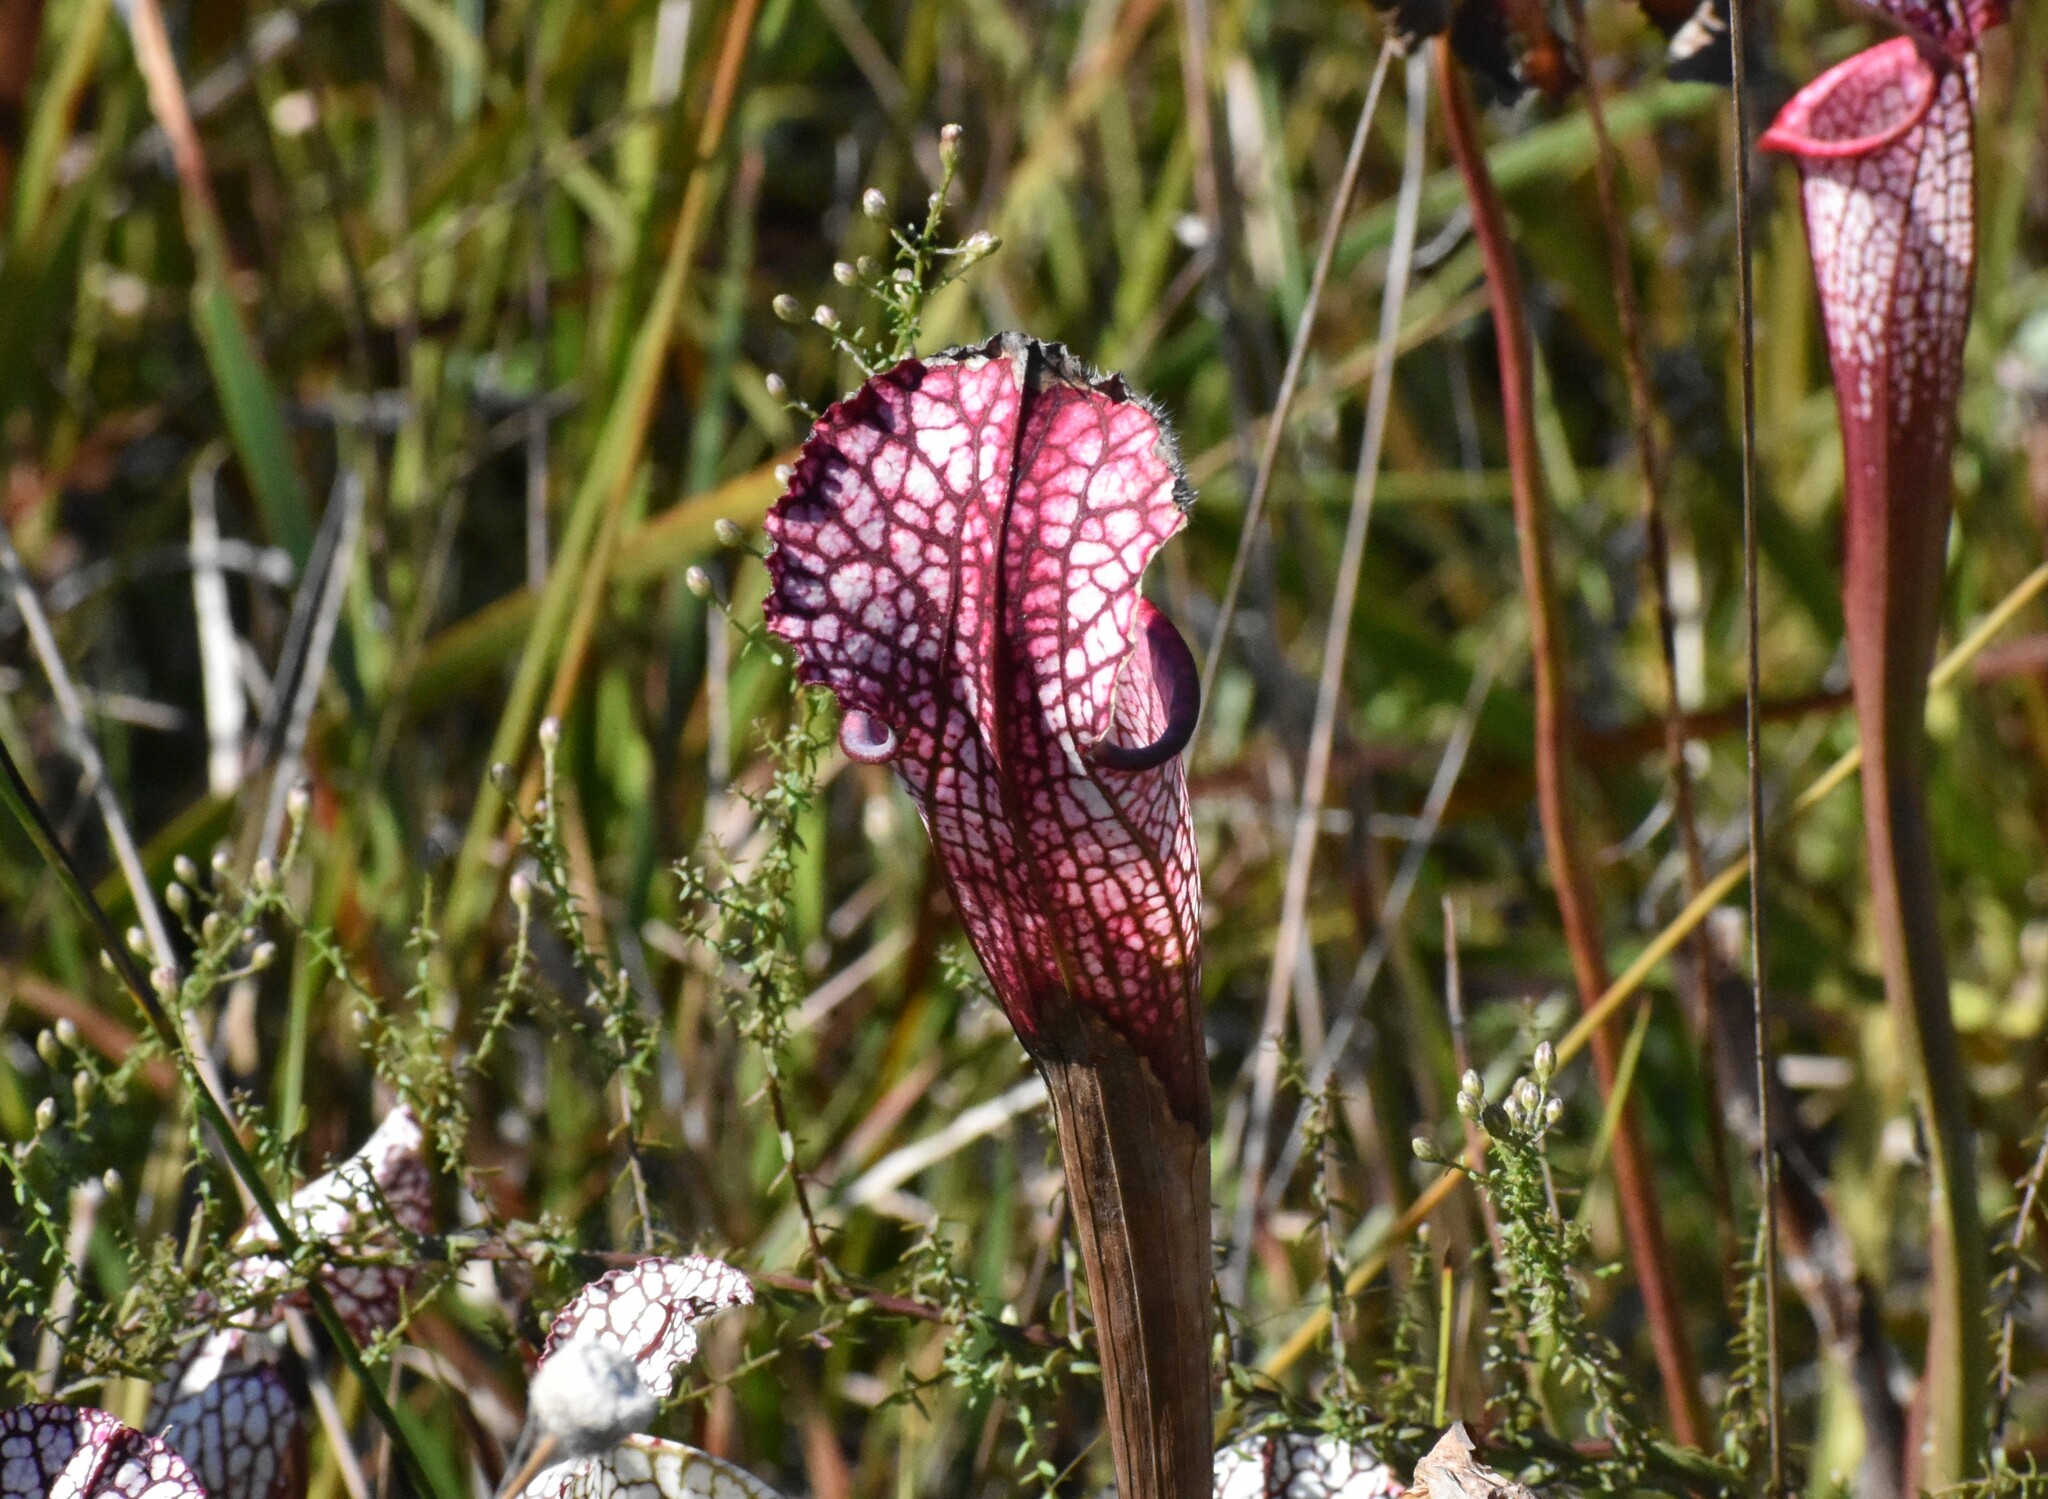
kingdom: Plantae
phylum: Tracheophyta
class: Magnoliopsida
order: Ericales
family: Sarraceniaceae
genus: Sarracenia
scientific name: Sarracenia leucophylla
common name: Purple trumpetleaf
